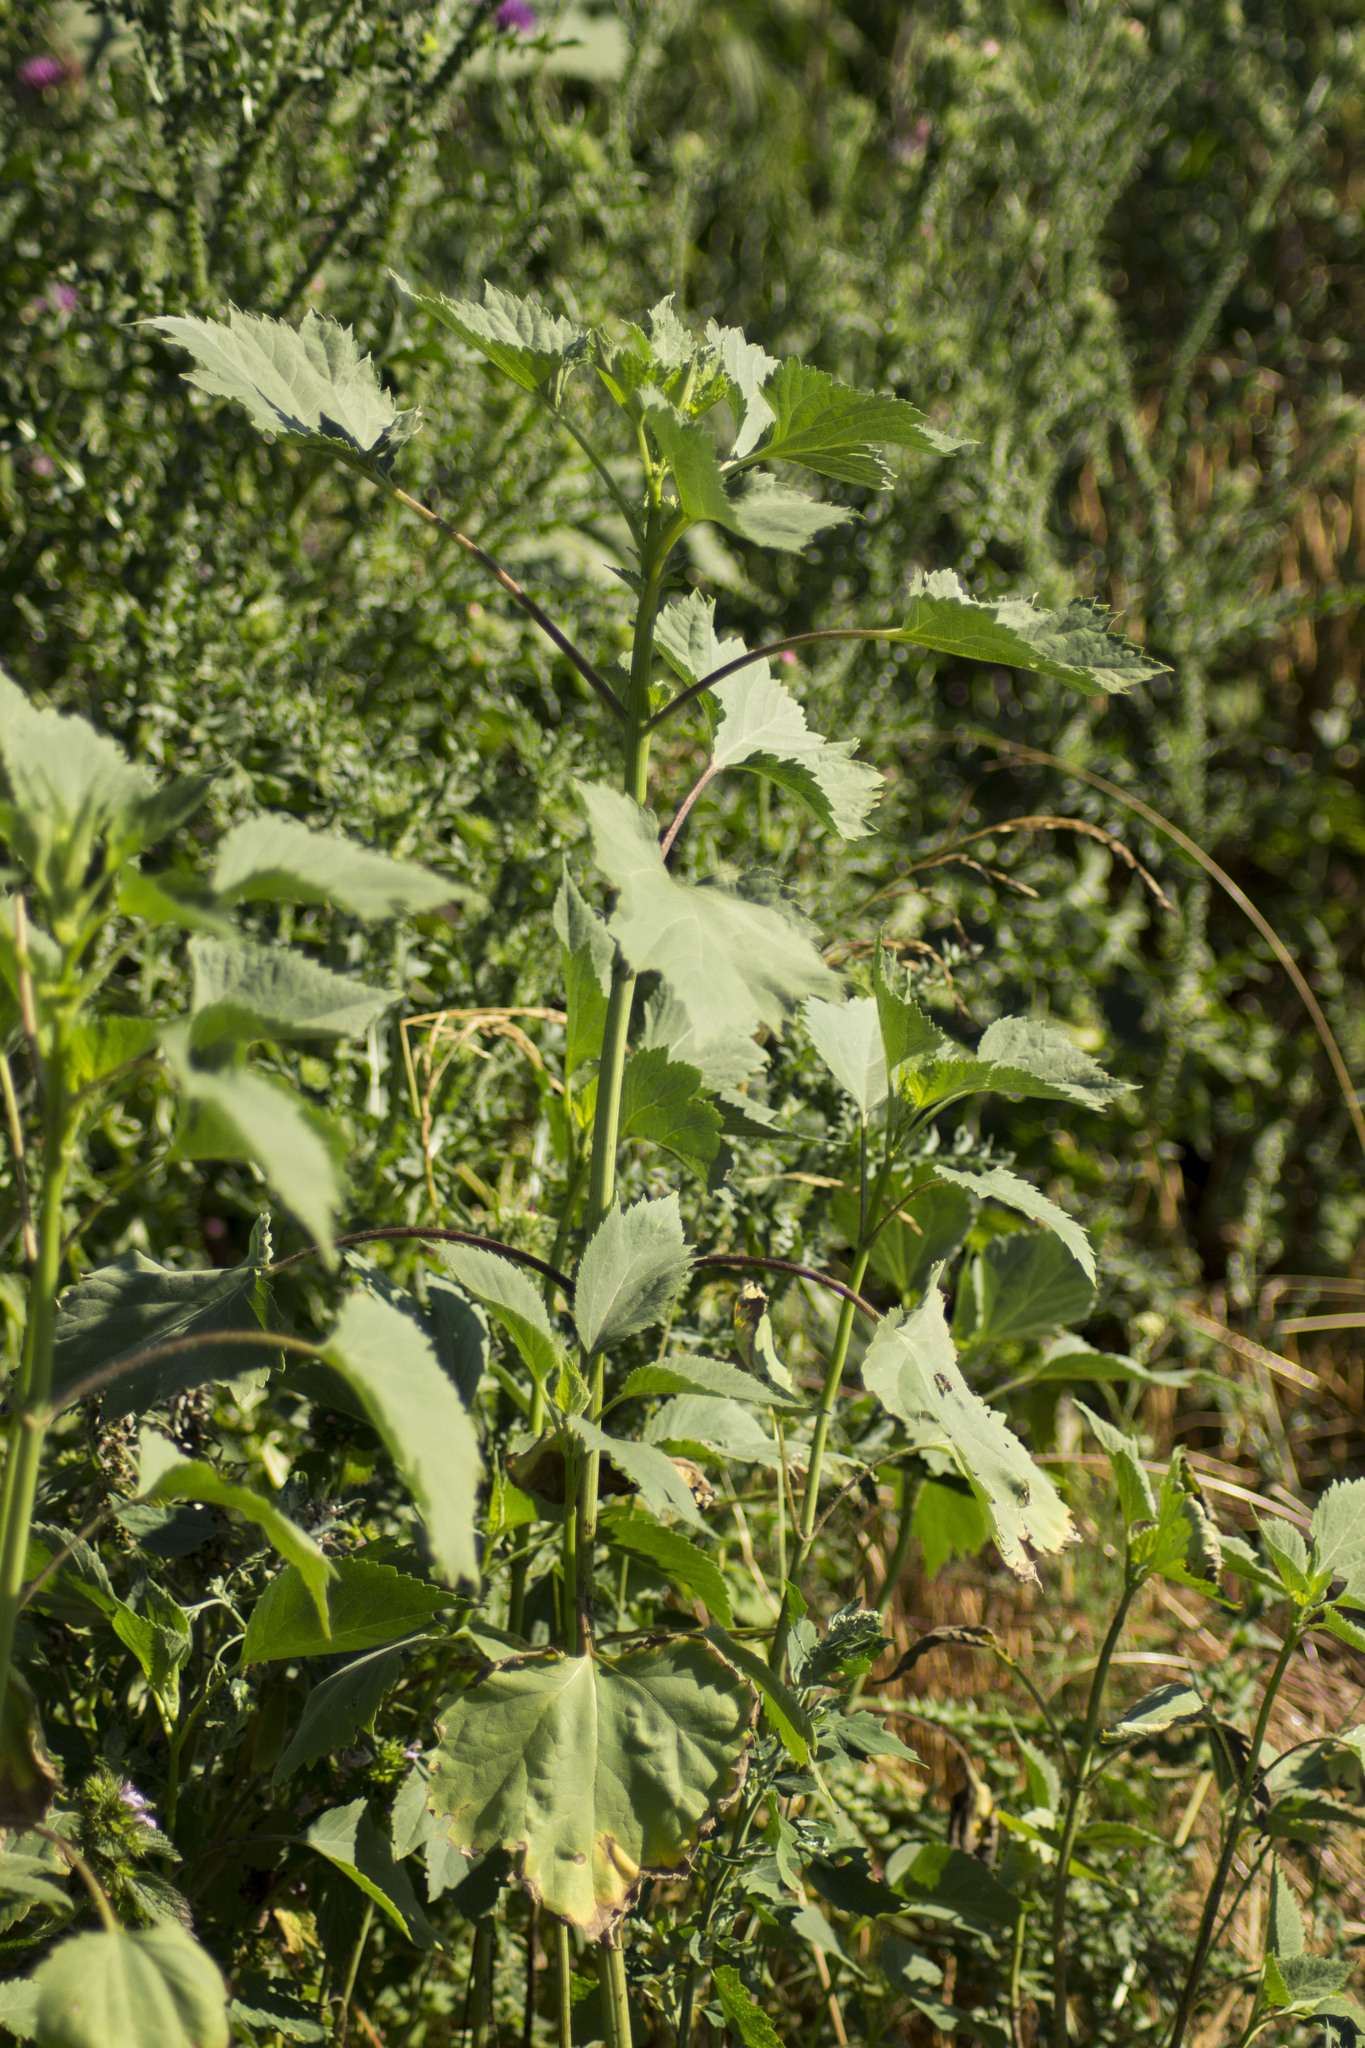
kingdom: Plantae
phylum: Tracheophyta
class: Magnoliopsida
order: Asterales
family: Asteraceae
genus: Cyclachaena
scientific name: Cyclachaena xanthiifolia
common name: Giant sumpweed
